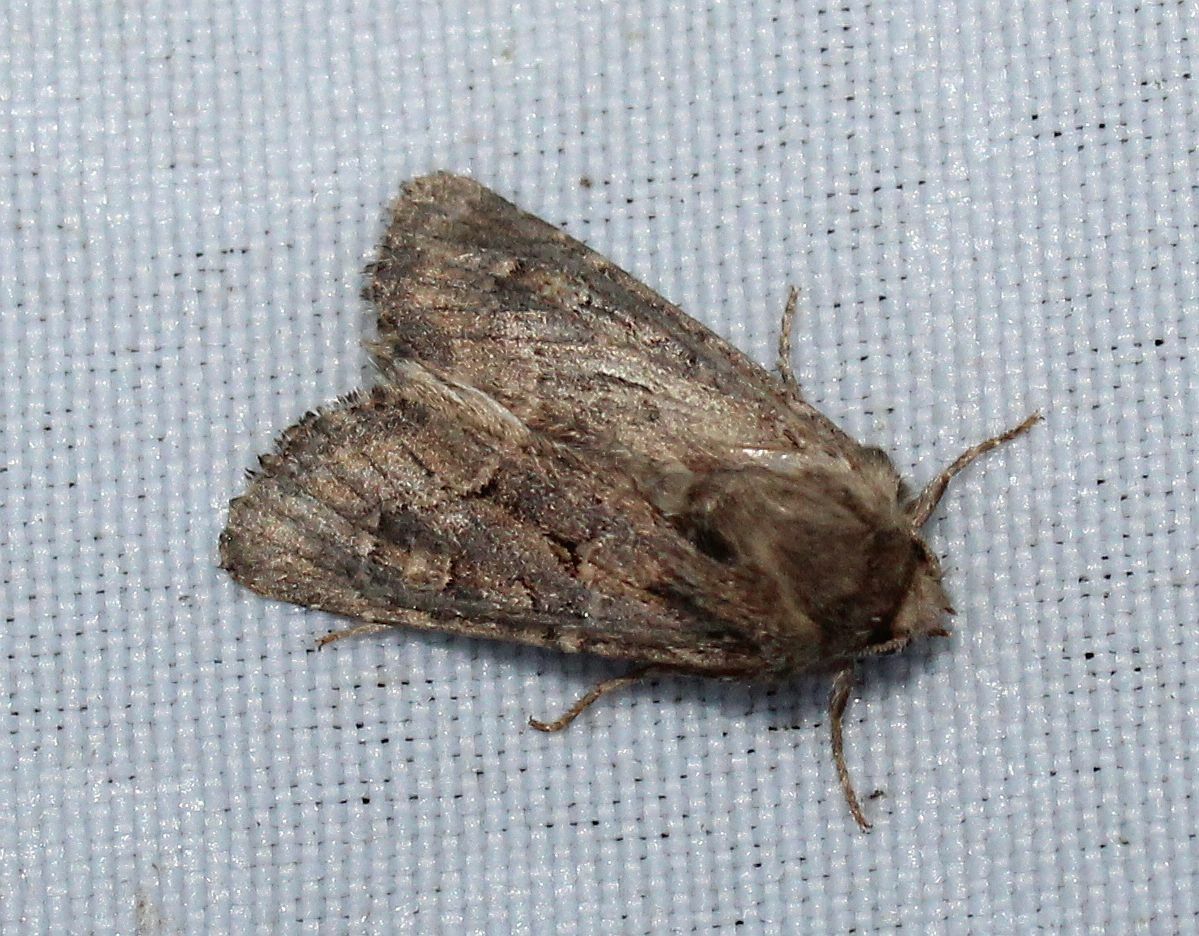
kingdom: Animalia
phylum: Arthropoda
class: Insecta
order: Lepidoptera
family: Noctuidae
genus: Luperina
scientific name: Luperina testacea
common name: Flounced rustic
